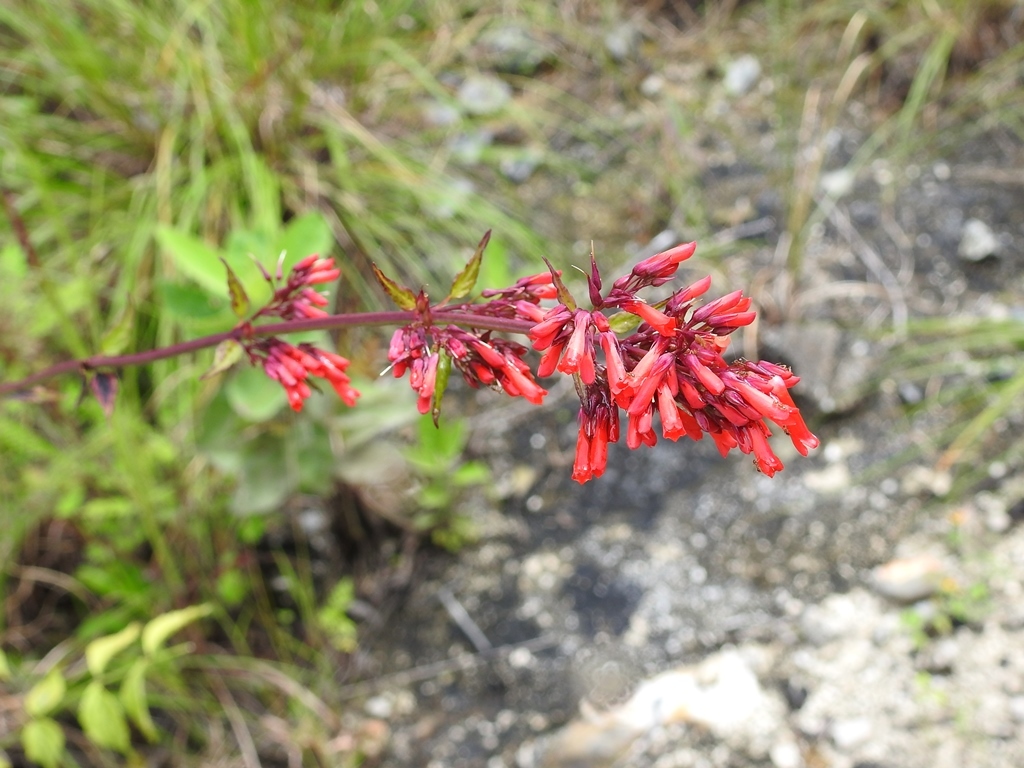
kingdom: Plantae
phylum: Tracheophyta
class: Magnoliopsida
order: Lamiales
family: Plantaginaceae
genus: Russelia
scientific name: Russelia verticillata
